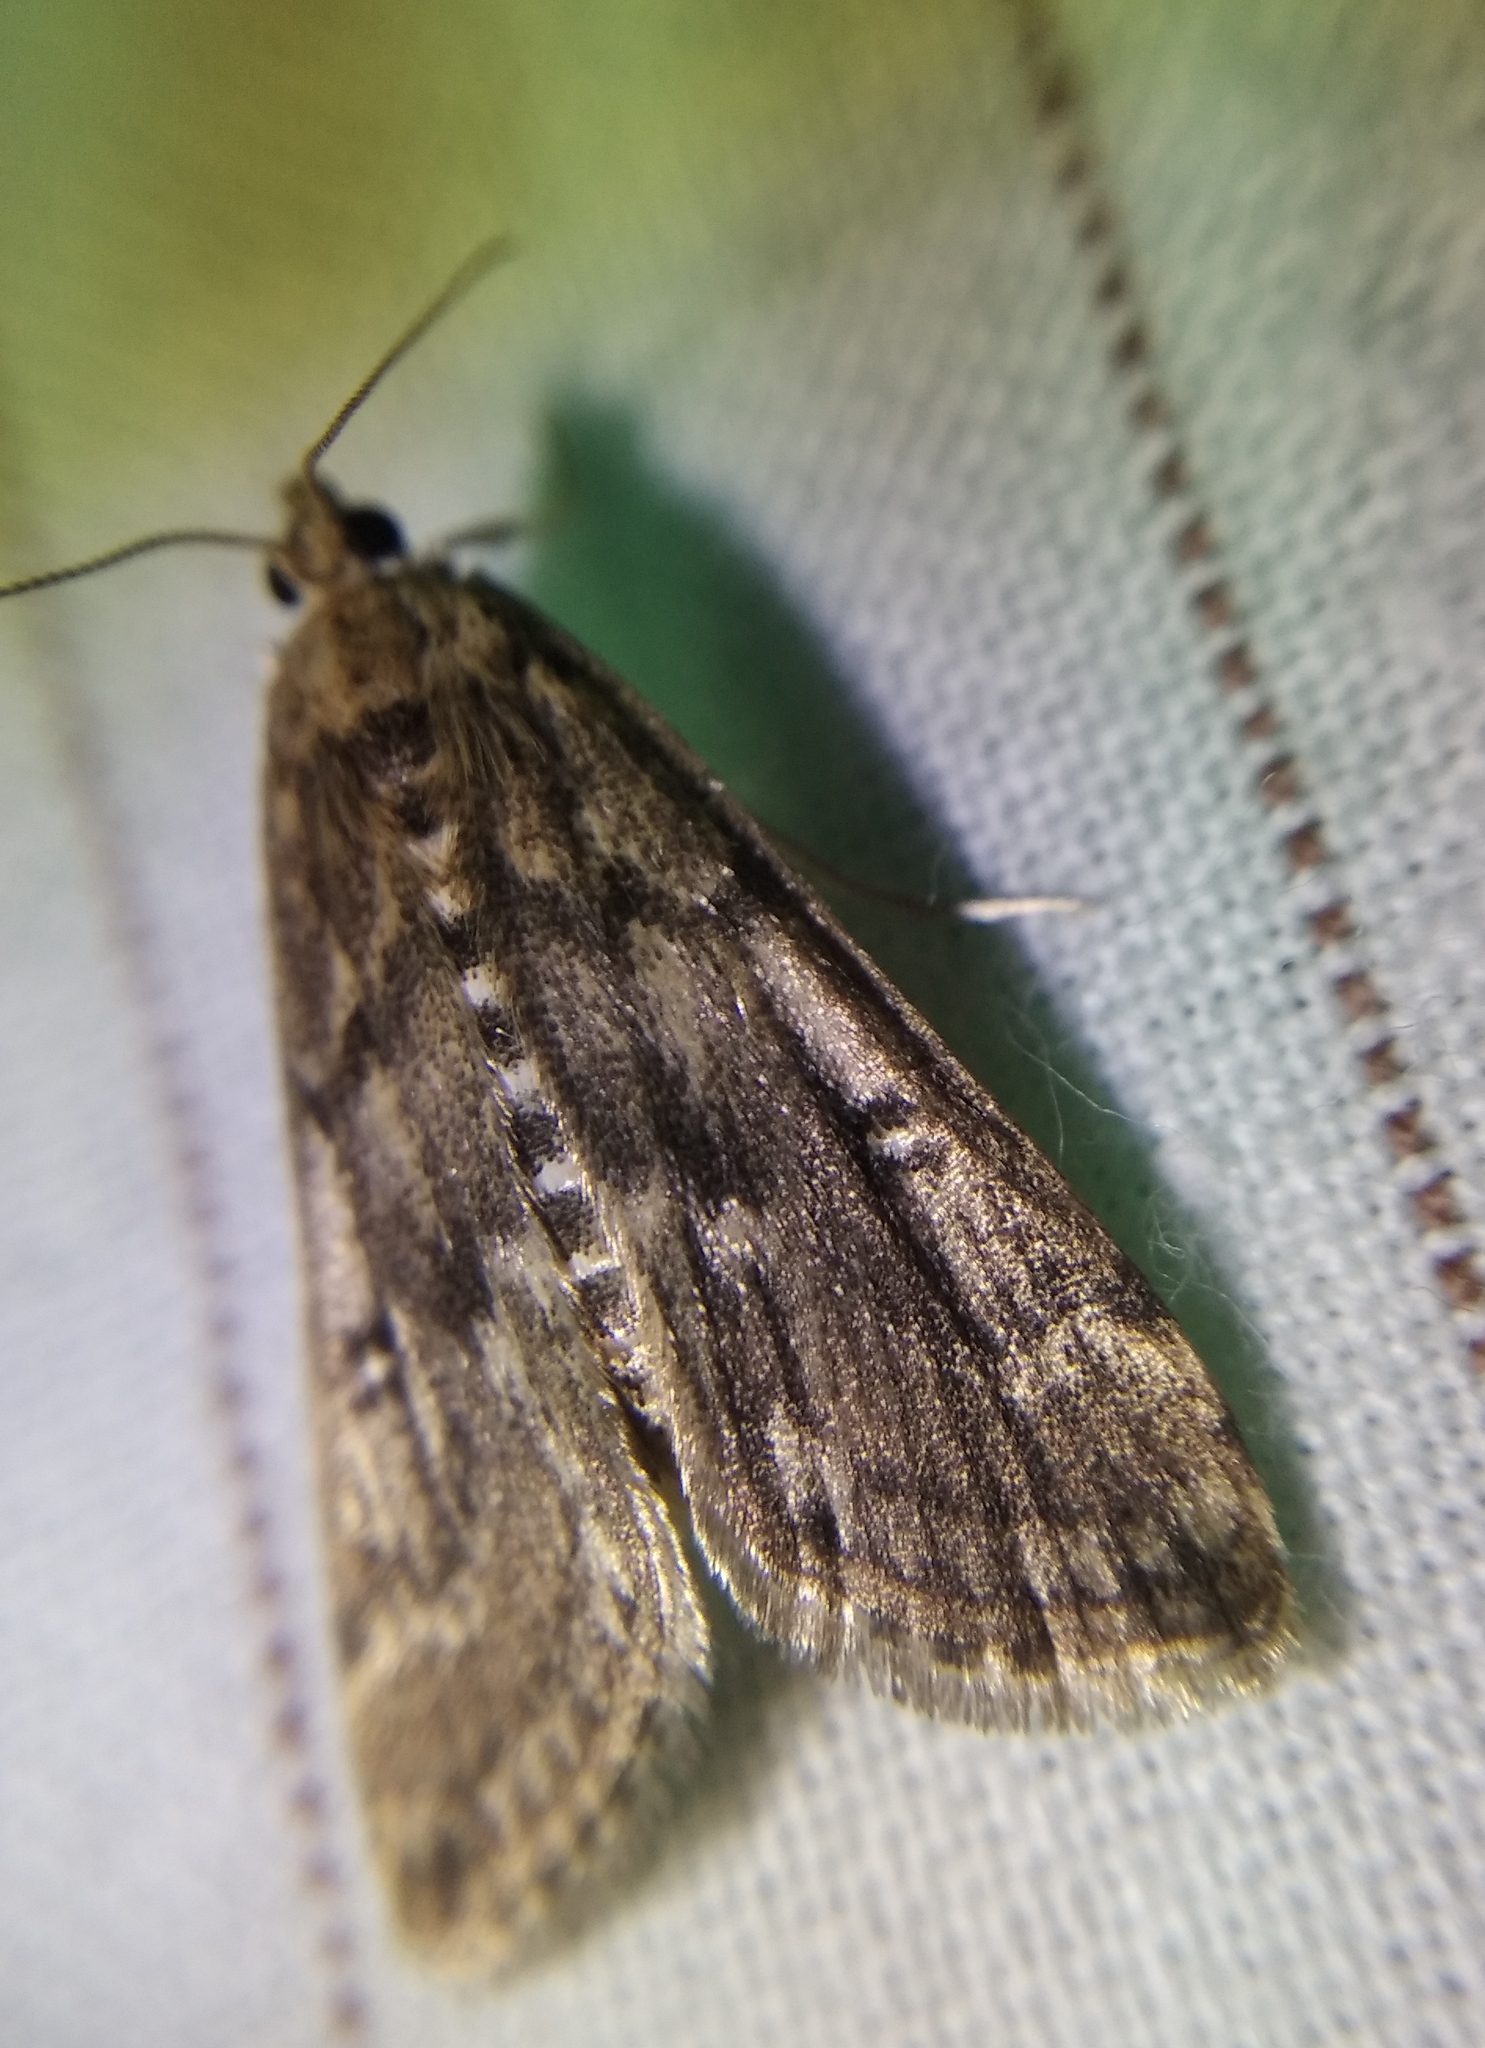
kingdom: Animalia
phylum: Arthropoda
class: Insecta
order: Lepidoptera
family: Crambidae
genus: Parapoynx
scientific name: Parapoynx stratiotata
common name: Ringed china-mark
